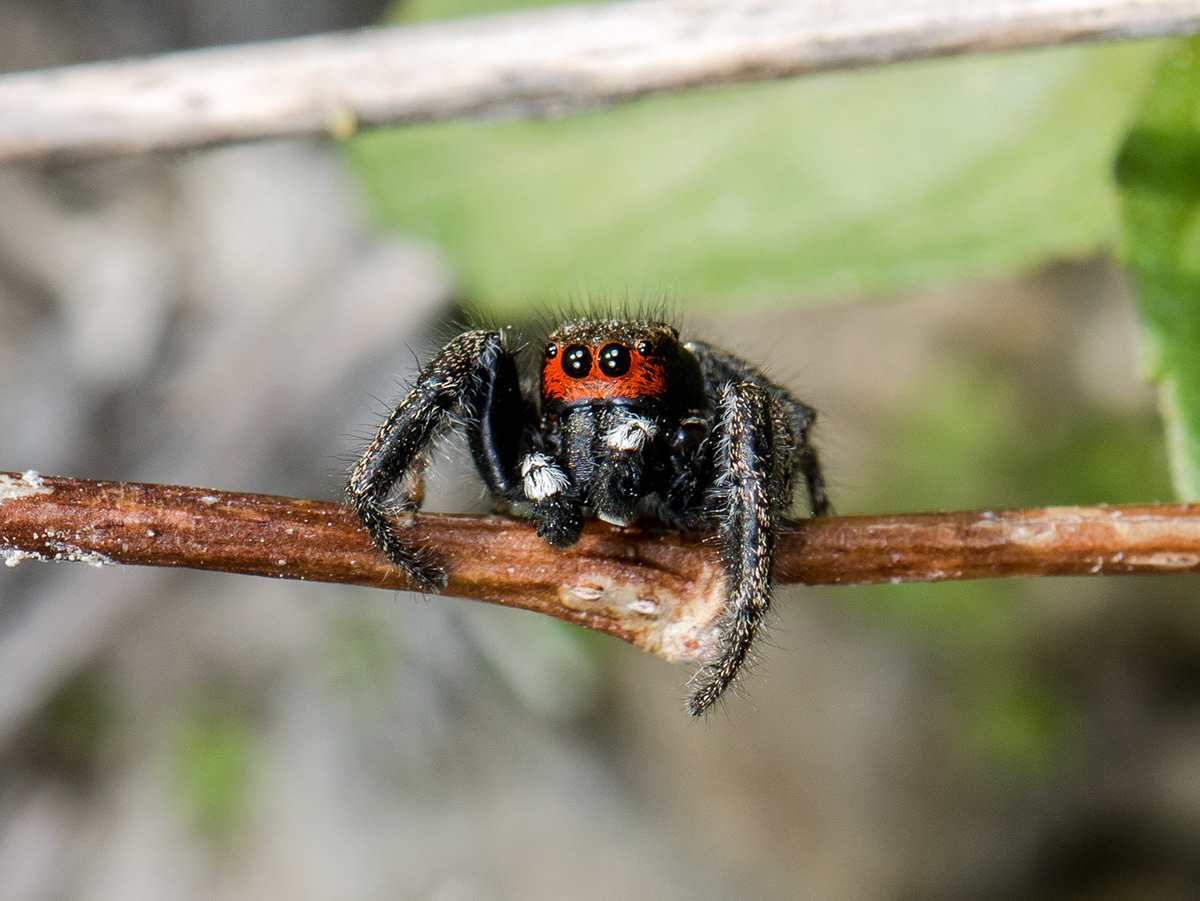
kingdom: Animalia
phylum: Arthropoda
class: Arachnida
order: Araneae
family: Salticidae
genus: Pellenes
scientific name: Pellenes seriatus
